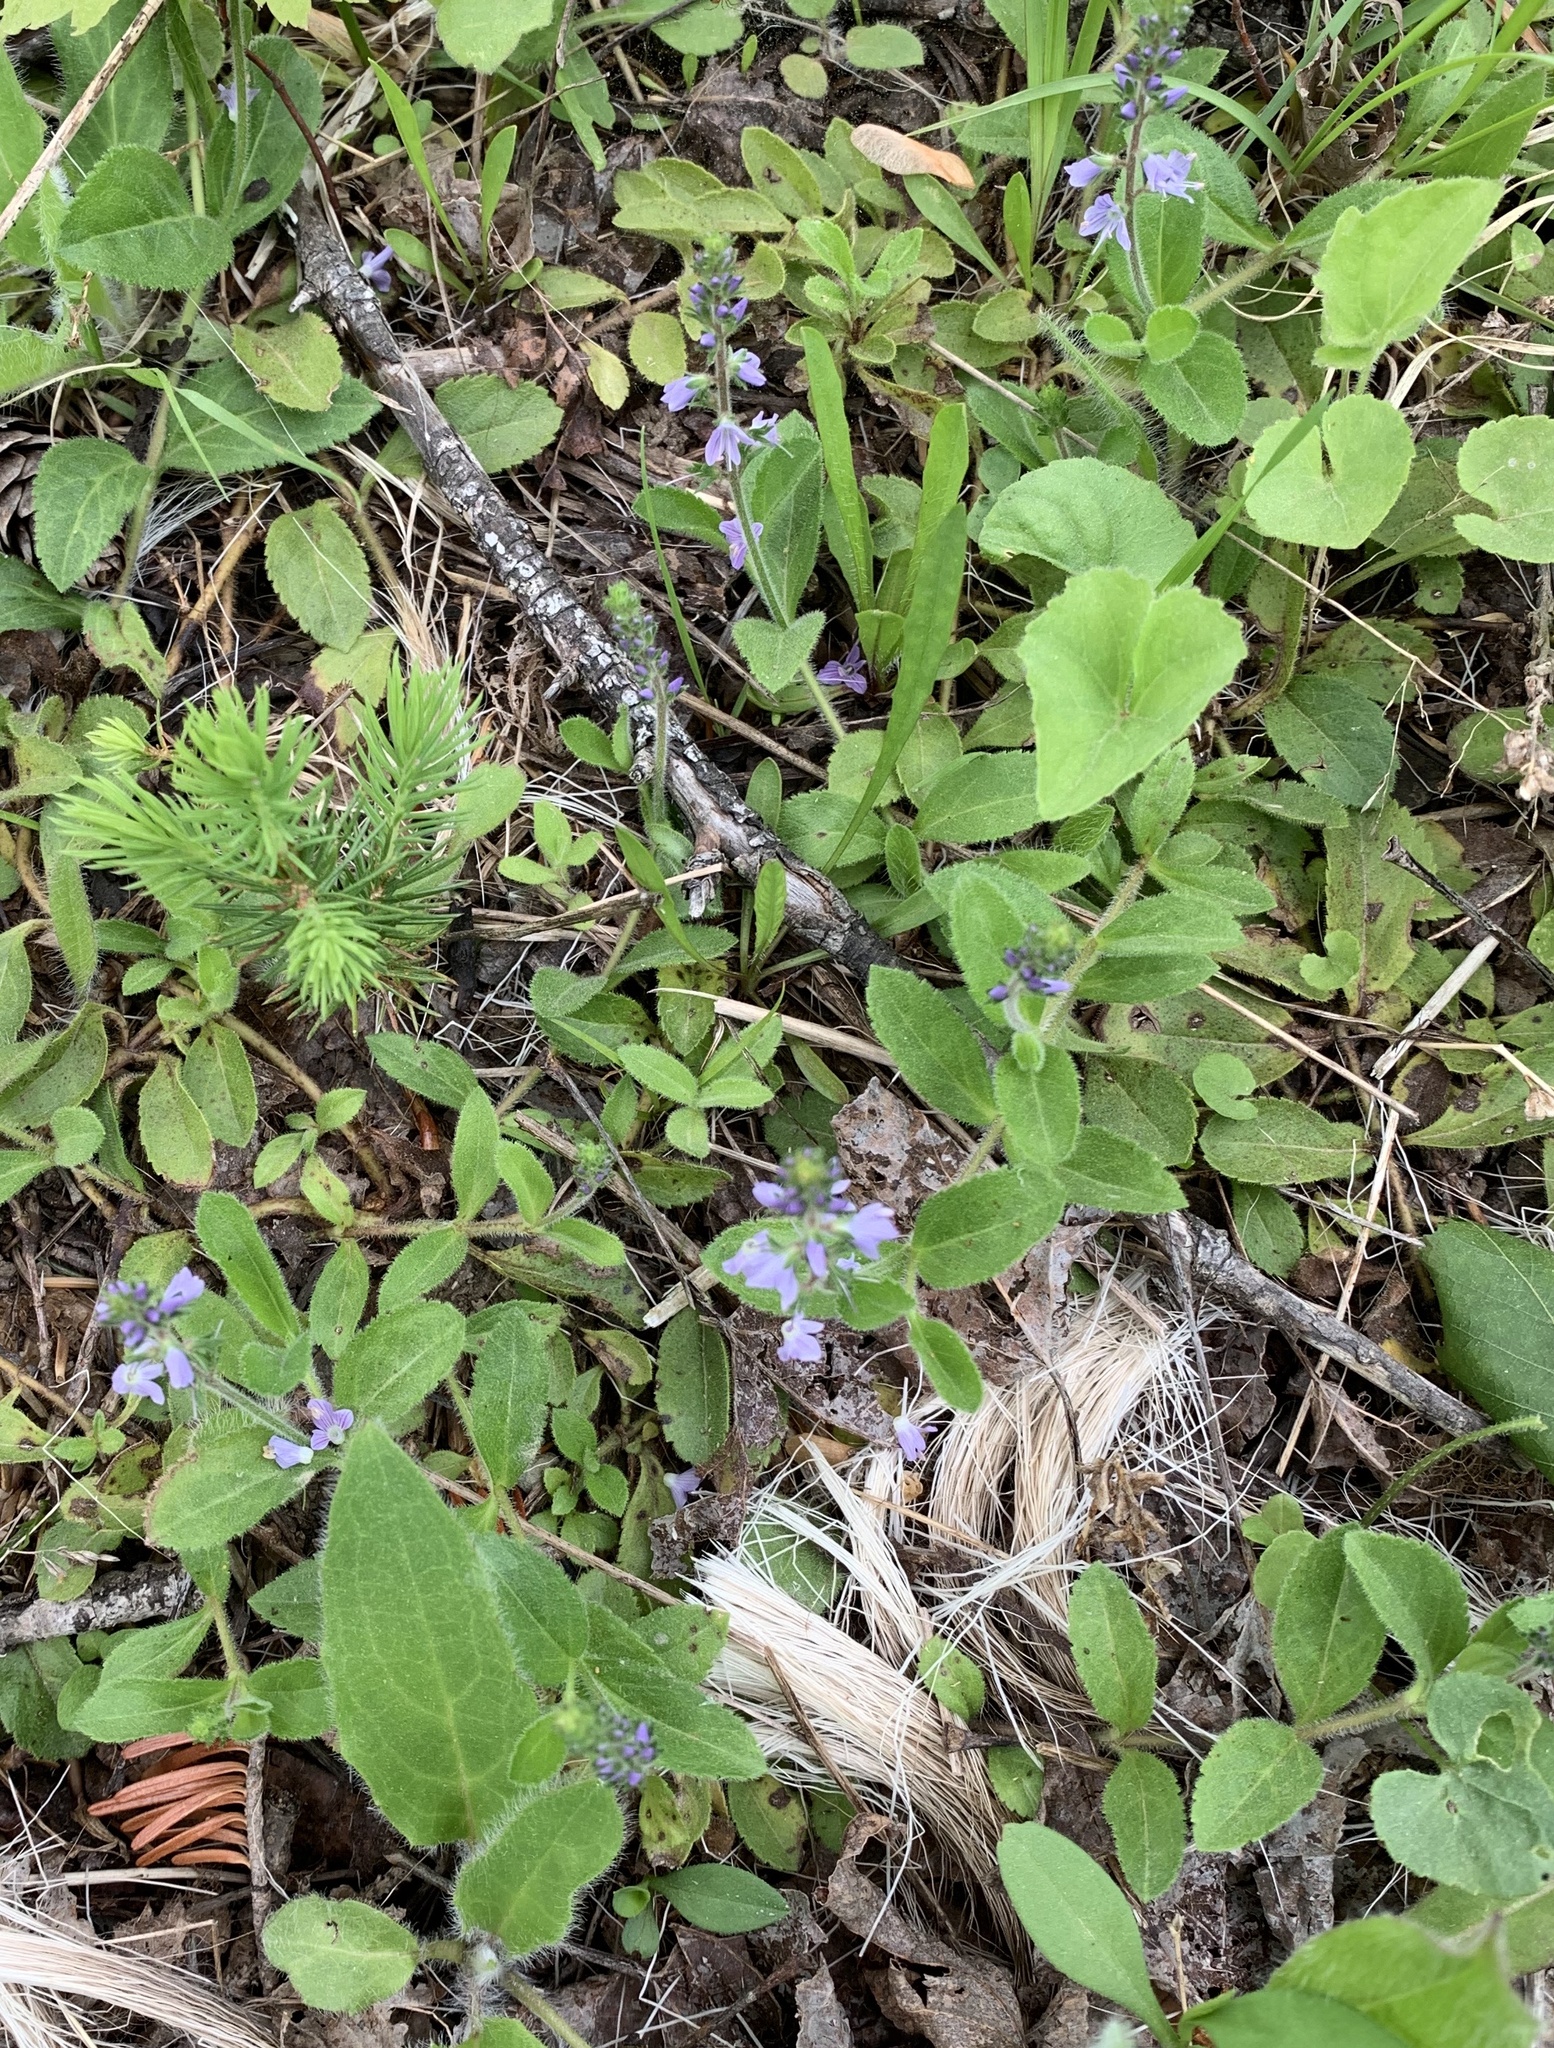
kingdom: Plantae
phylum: Tracheophyta
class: Magnoliopsida
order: Lamiales
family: Plantaginaceae
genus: Veronica
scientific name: Veronica officinalis
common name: Common speedwell
